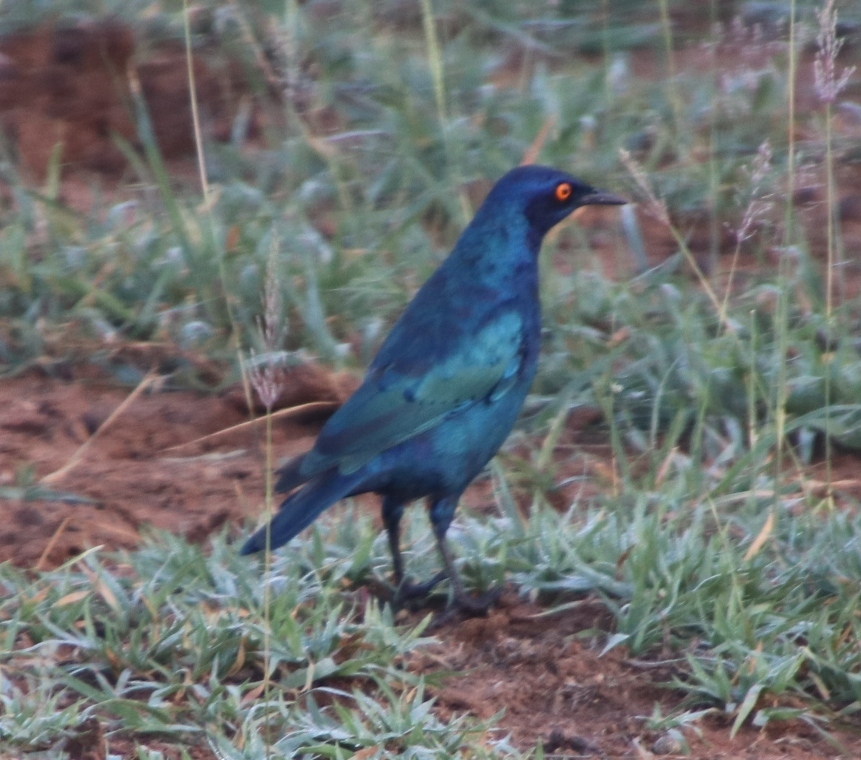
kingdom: Animalia
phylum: Chordata
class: Aves
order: Passeriformes
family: Sturnidae
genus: Lamprotornis
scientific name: Lamprotornis nitens
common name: Cape starling
